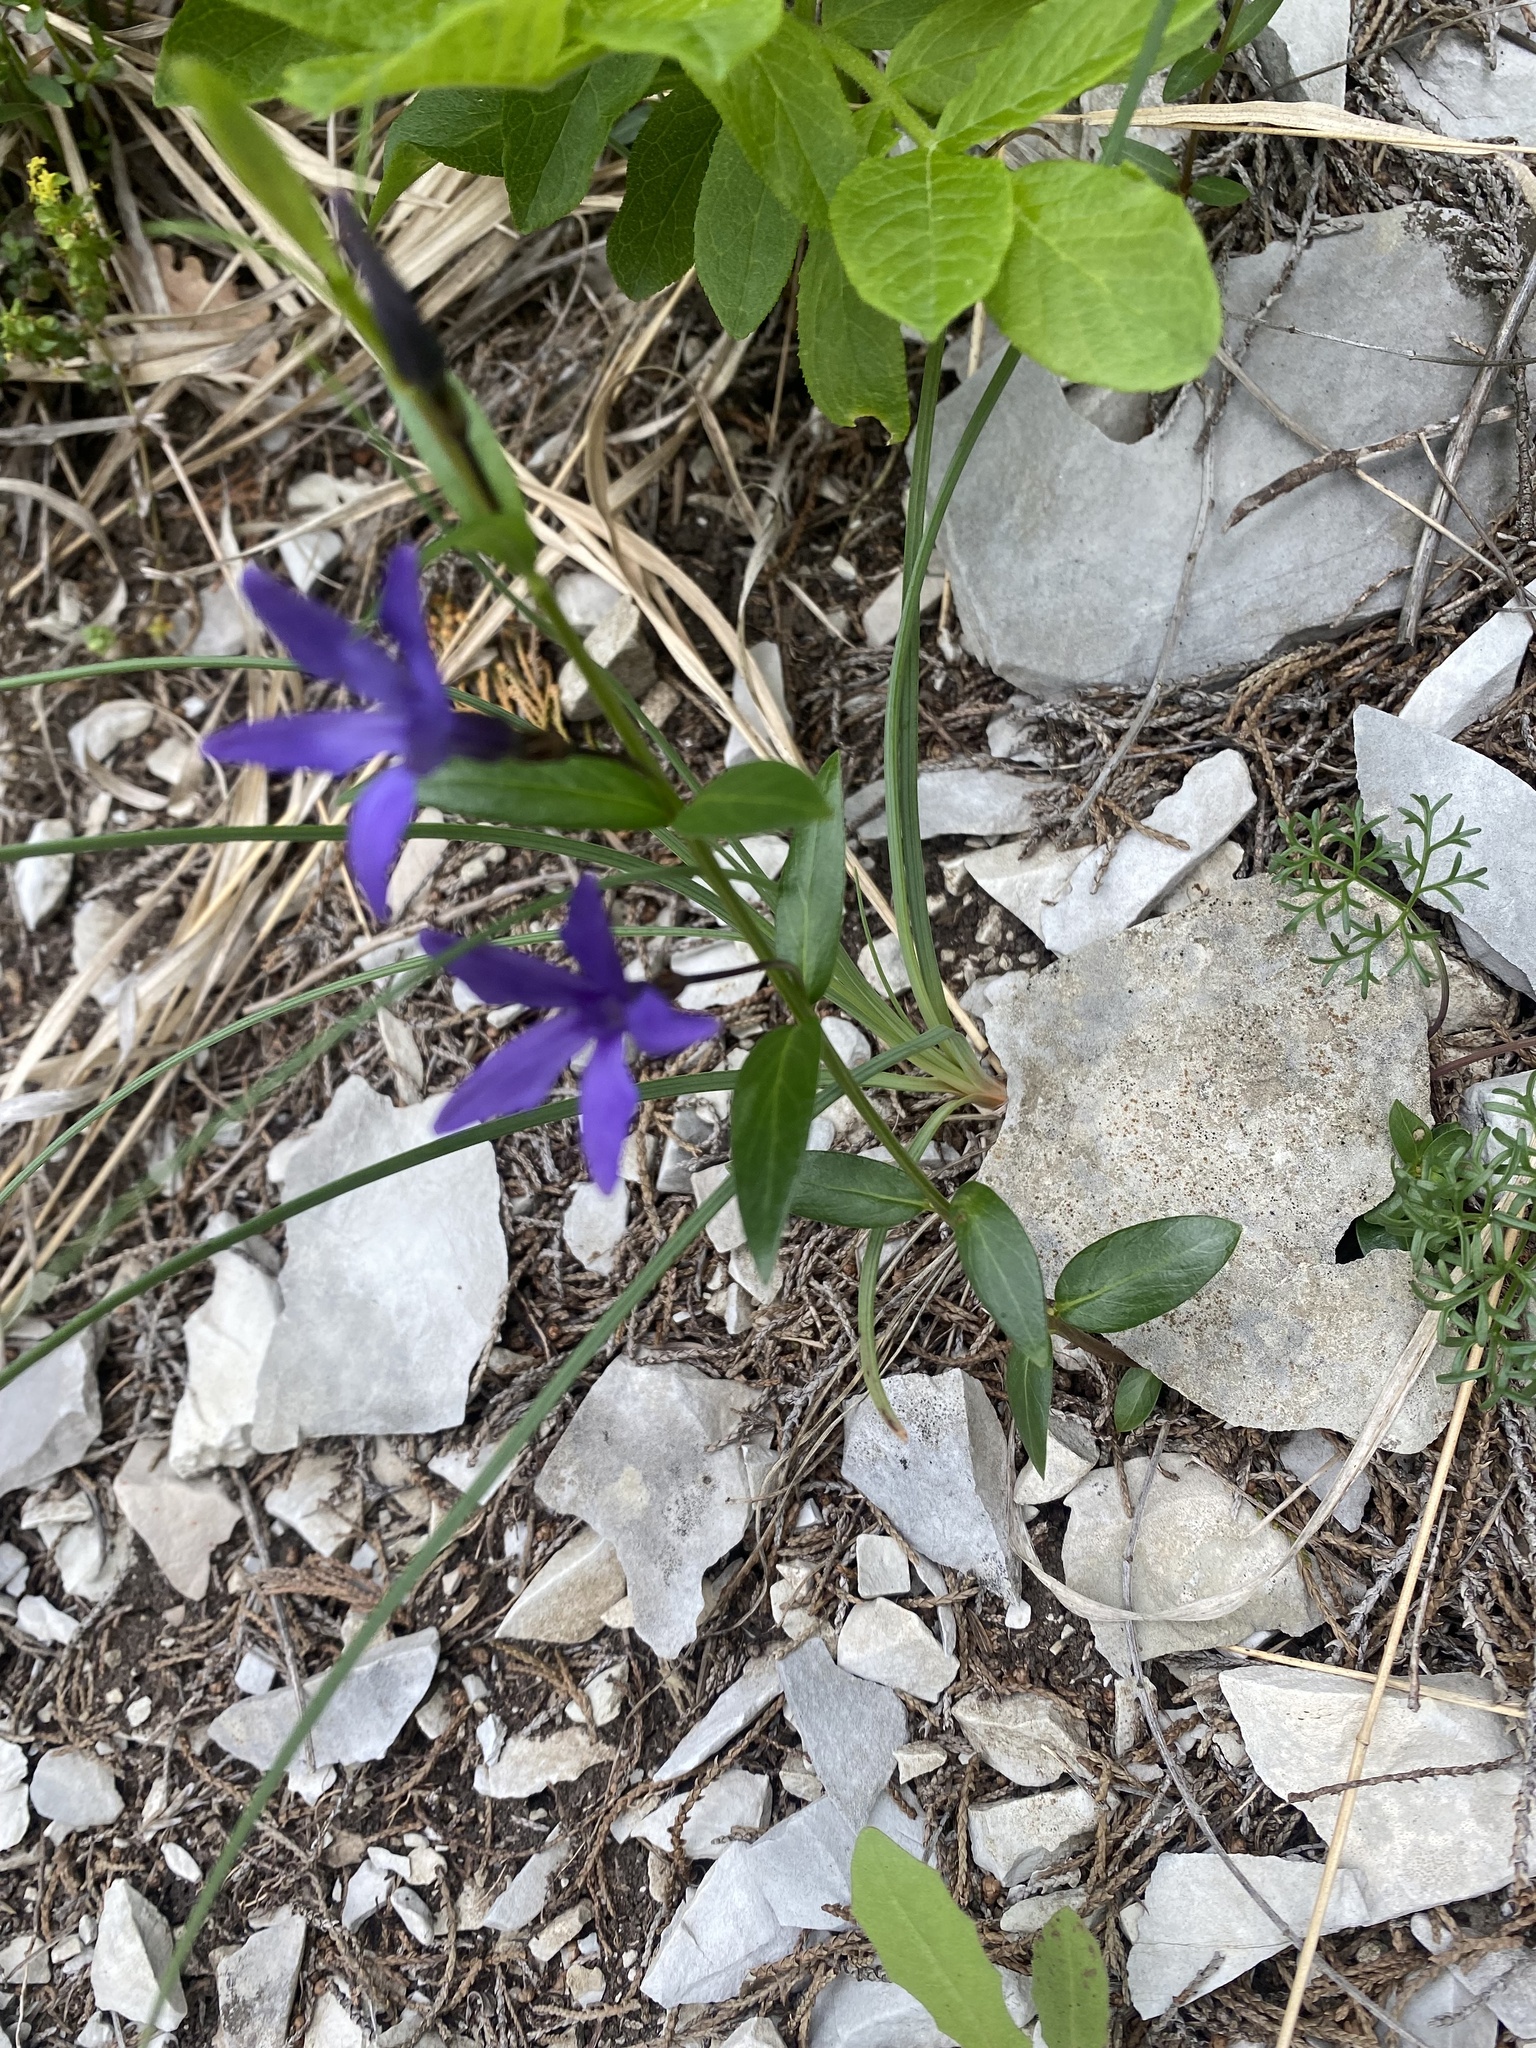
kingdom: Plantae
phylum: Tracheophyta
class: Magnoliopsida
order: Gentianales
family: Apocynaceae
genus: Vinca
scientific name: Vinca herbacea
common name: Herbaceous periwinkle
